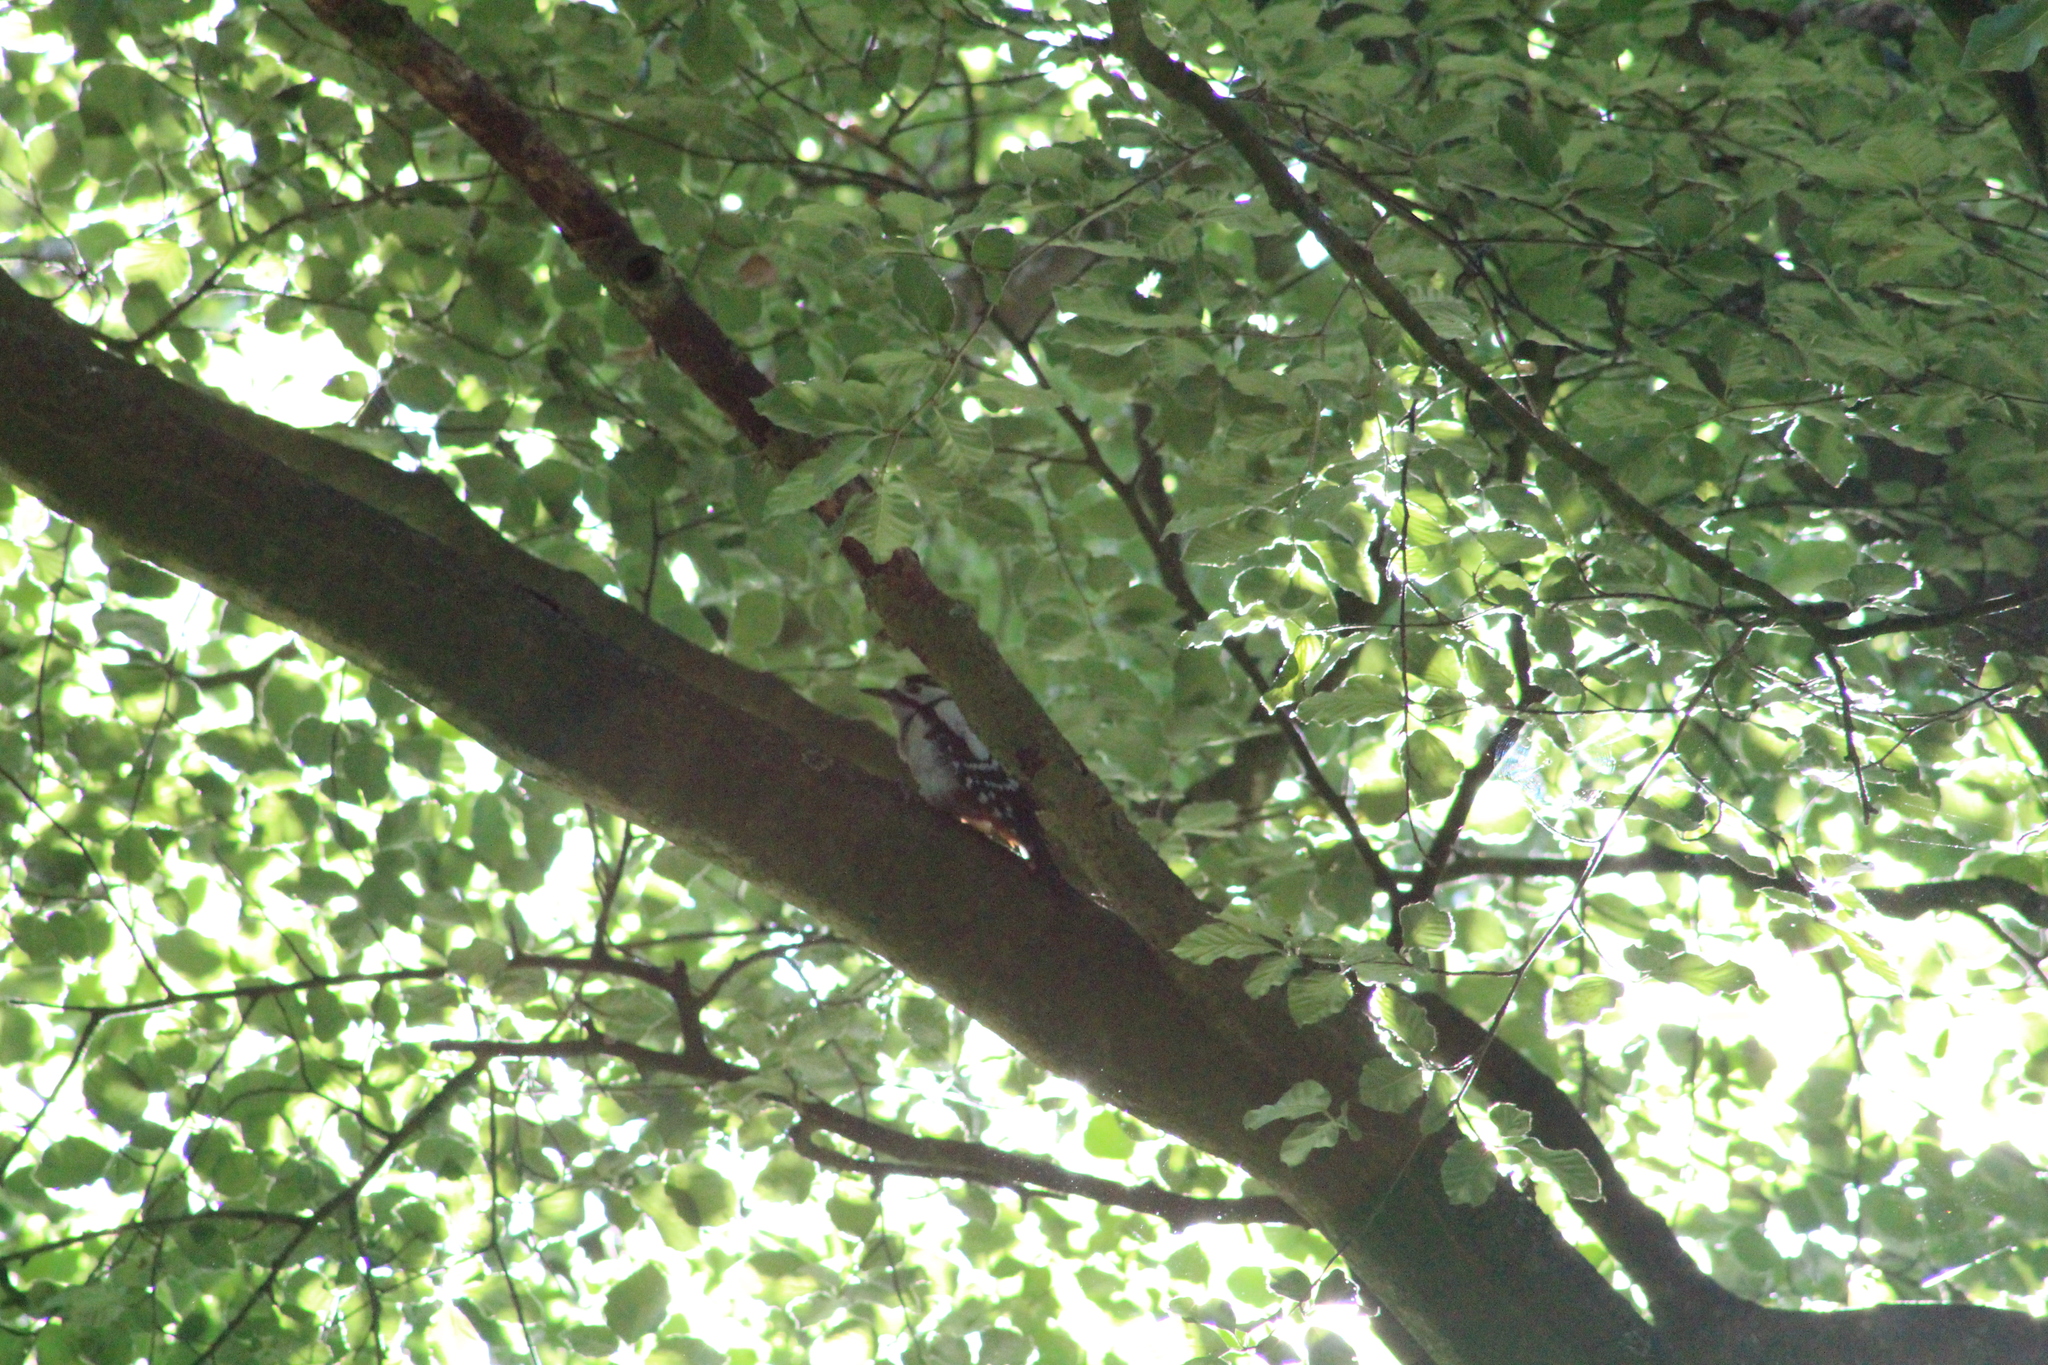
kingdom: Animalia
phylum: Chordata
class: Aves
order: Piciformes
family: Picidae
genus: Dendrocopos
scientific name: Dendrocopos major
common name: Great spotted woodpecker
